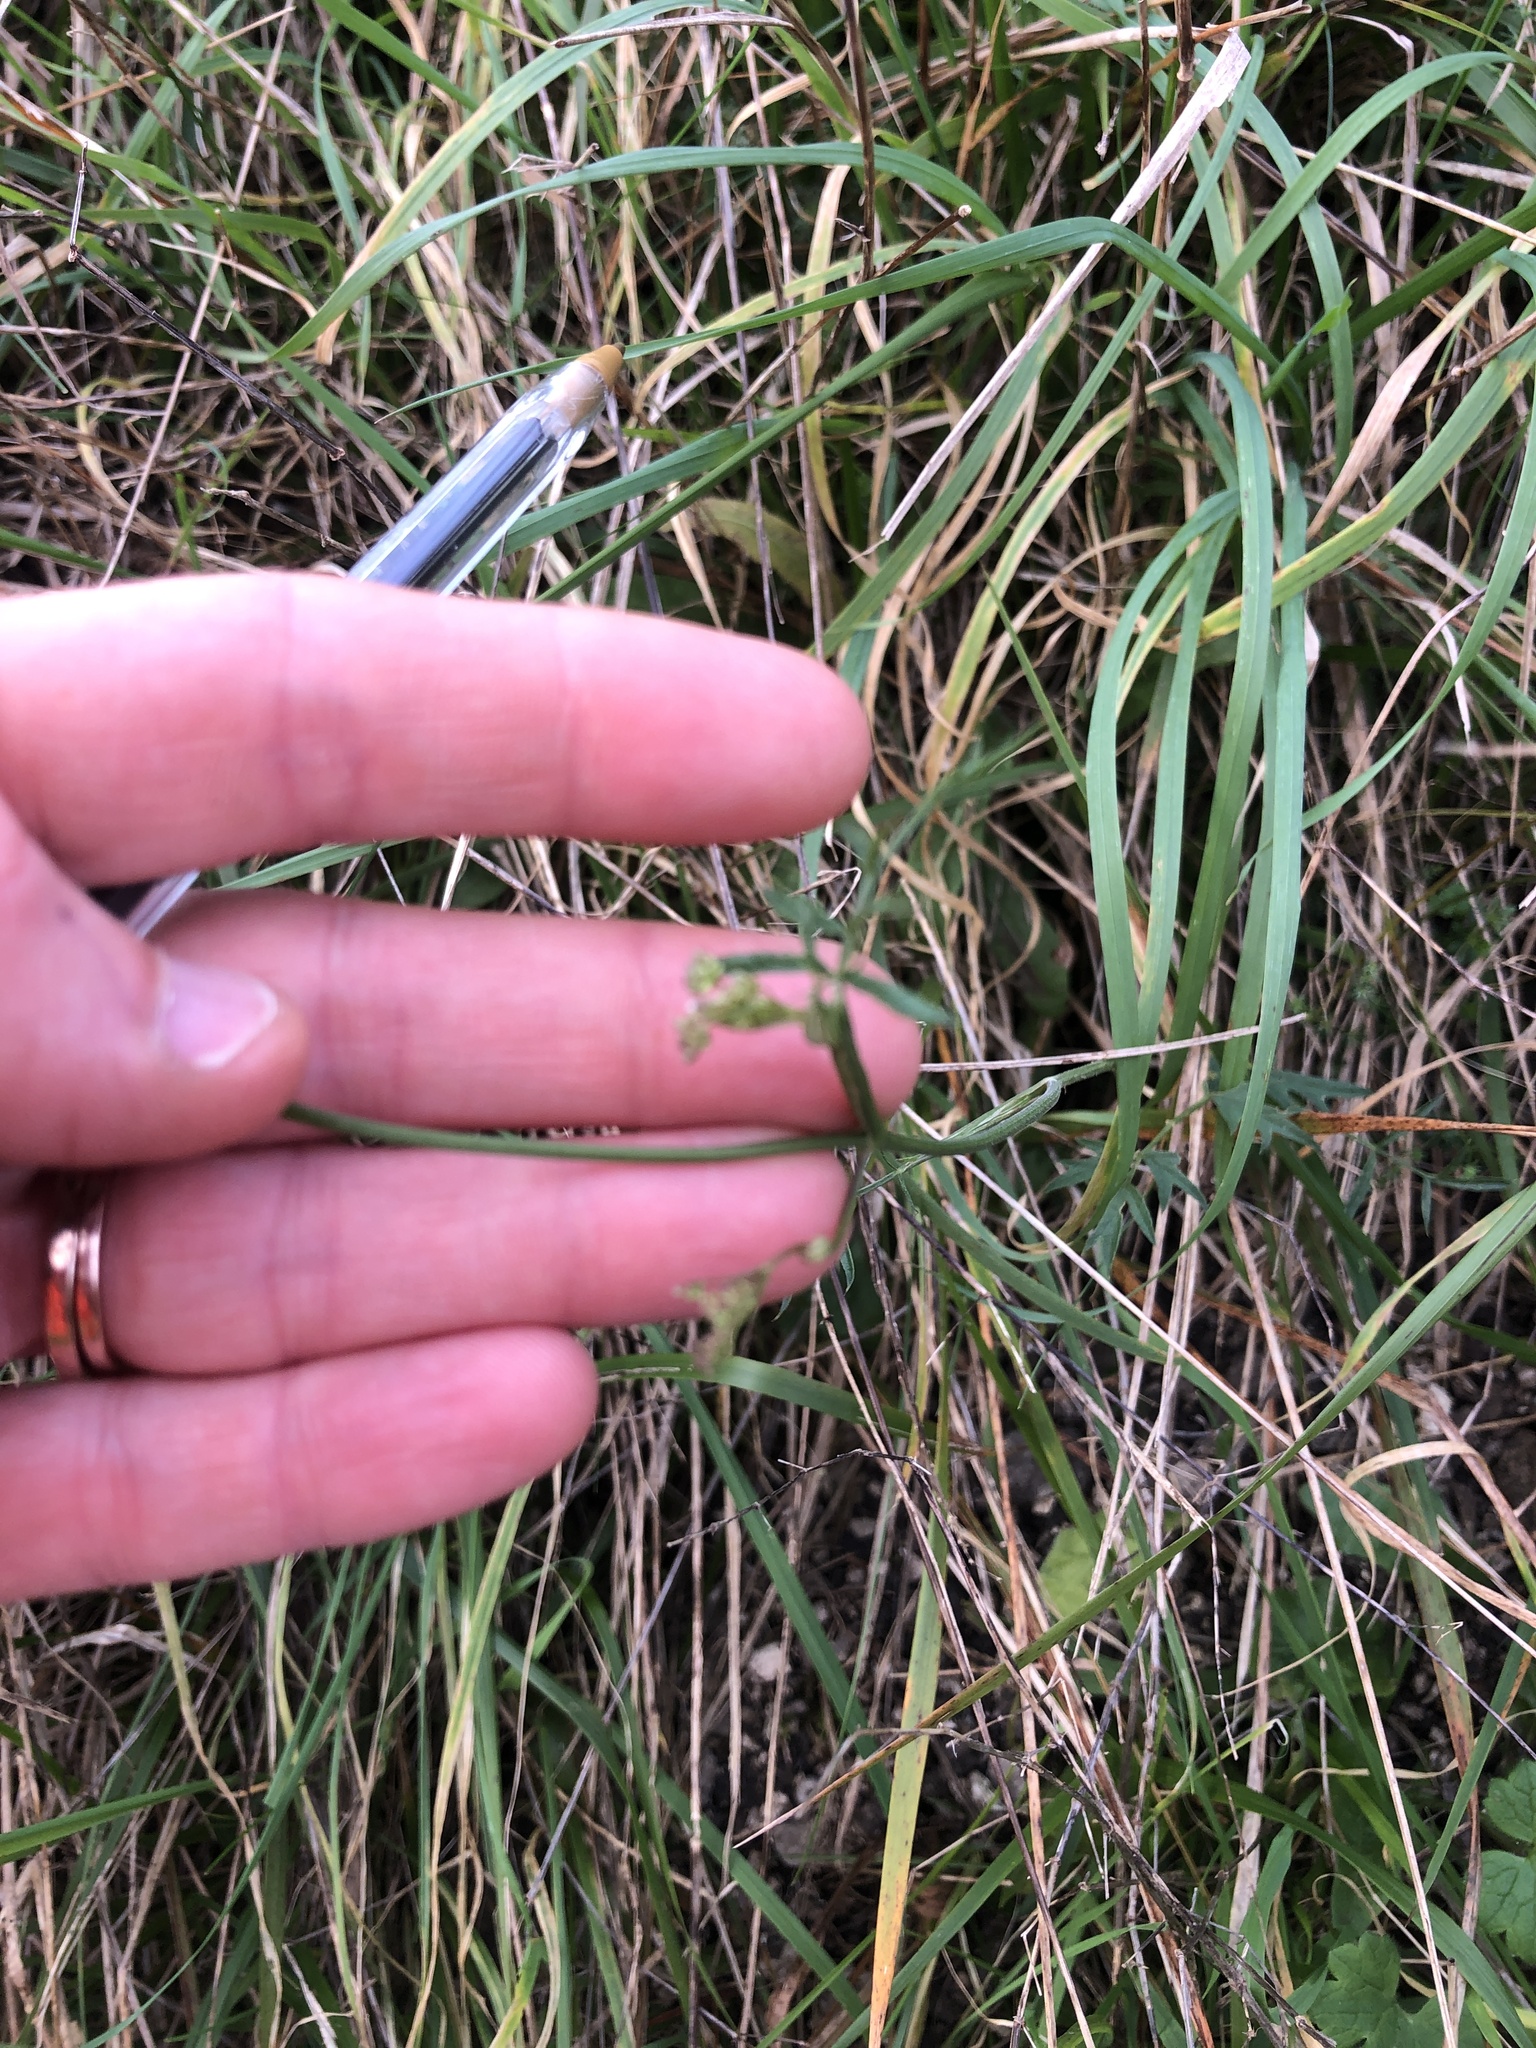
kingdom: Plantae
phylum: Tracheophyta
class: Magnoliopsida
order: Apiales
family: Apiaceae
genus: Pimpinella
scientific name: Pimpinella saxifraga
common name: Burnet-saxifrage
